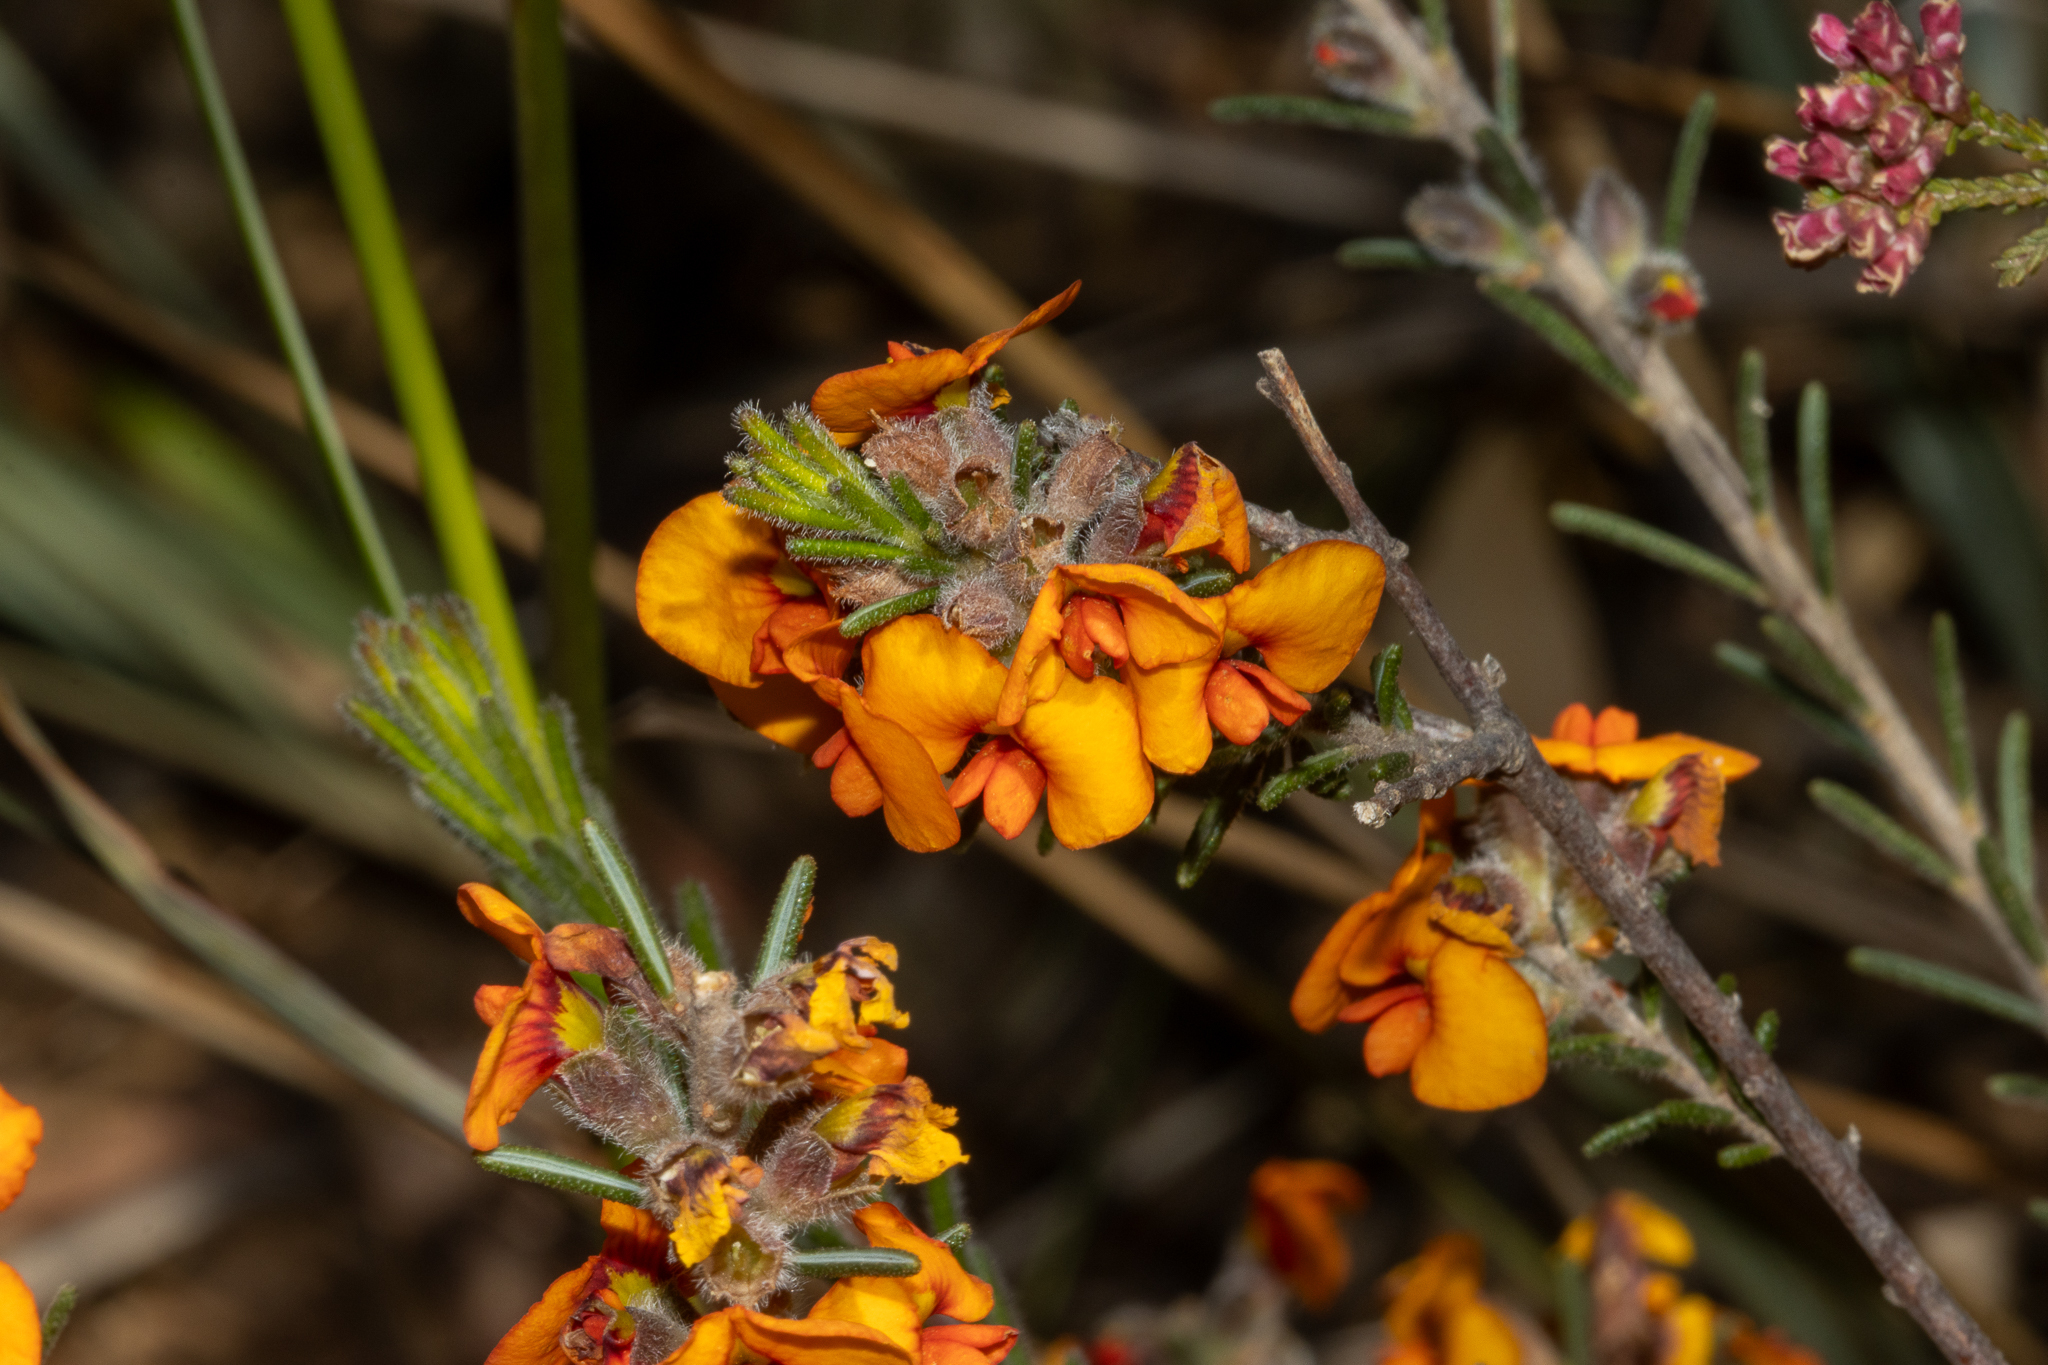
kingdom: Plantae
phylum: Tracheophyta
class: Magnoliopsida
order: Fabales
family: Fabaceae
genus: Dillwynia
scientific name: Dillwynia sericea
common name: Showy parrot-pea
